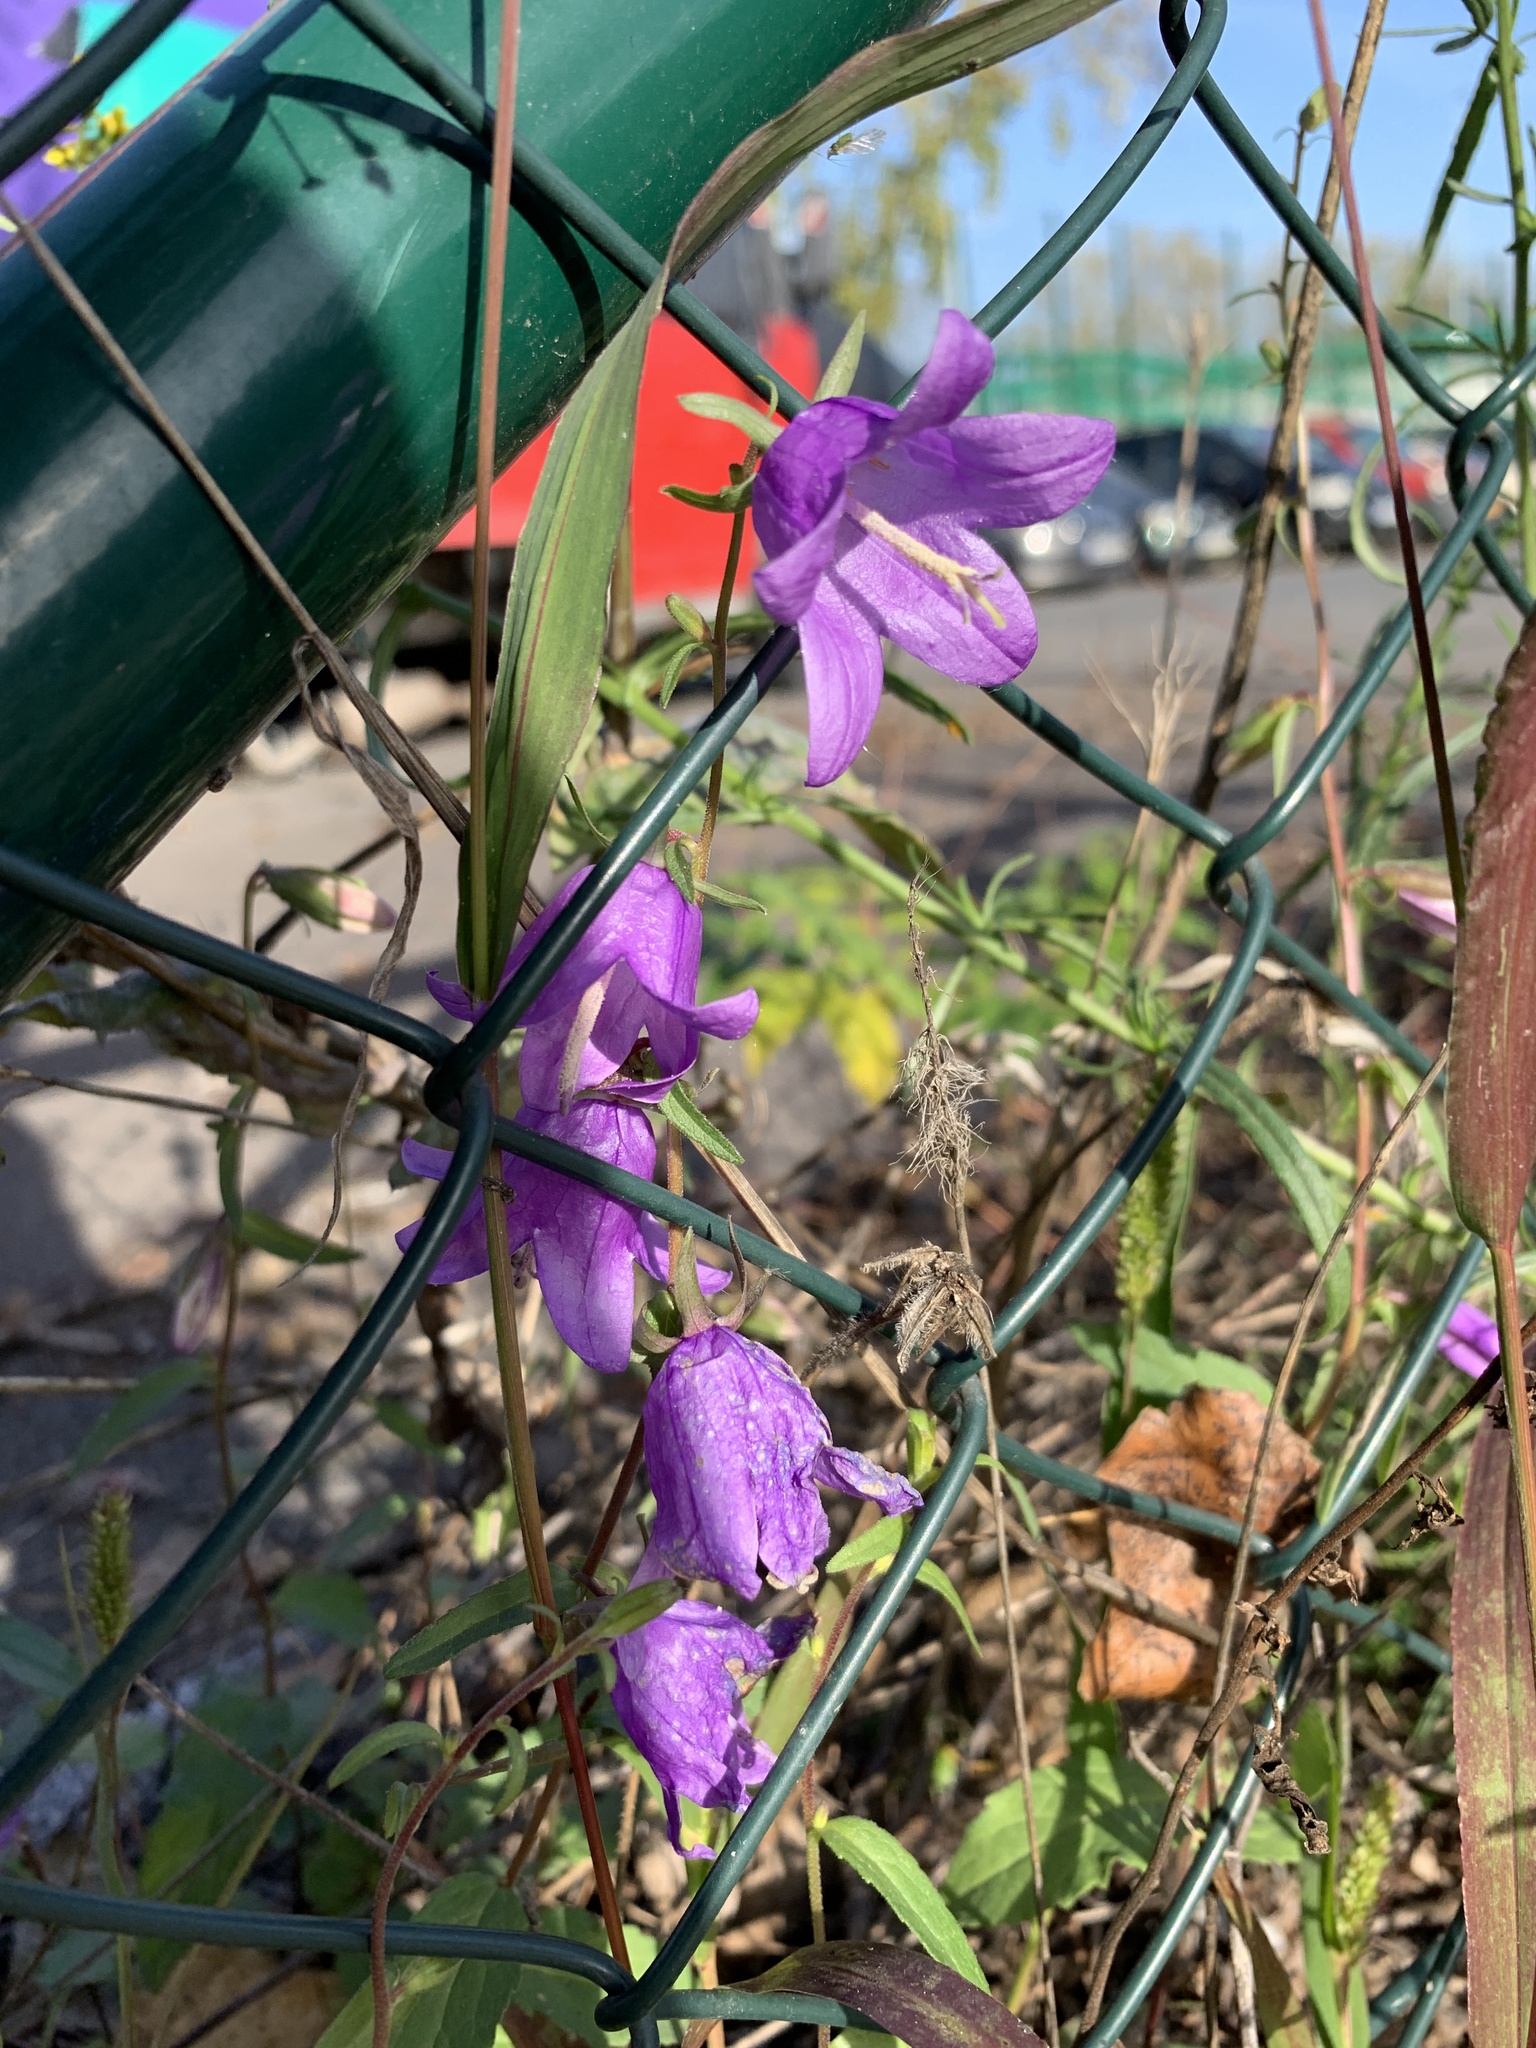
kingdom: Plantae
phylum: Tracheophyta
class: Magnoliopsida
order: Asterales
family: Campanulaceae
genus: Campanula
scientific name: Campanula rapunculoides
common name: Creeping bellflower
